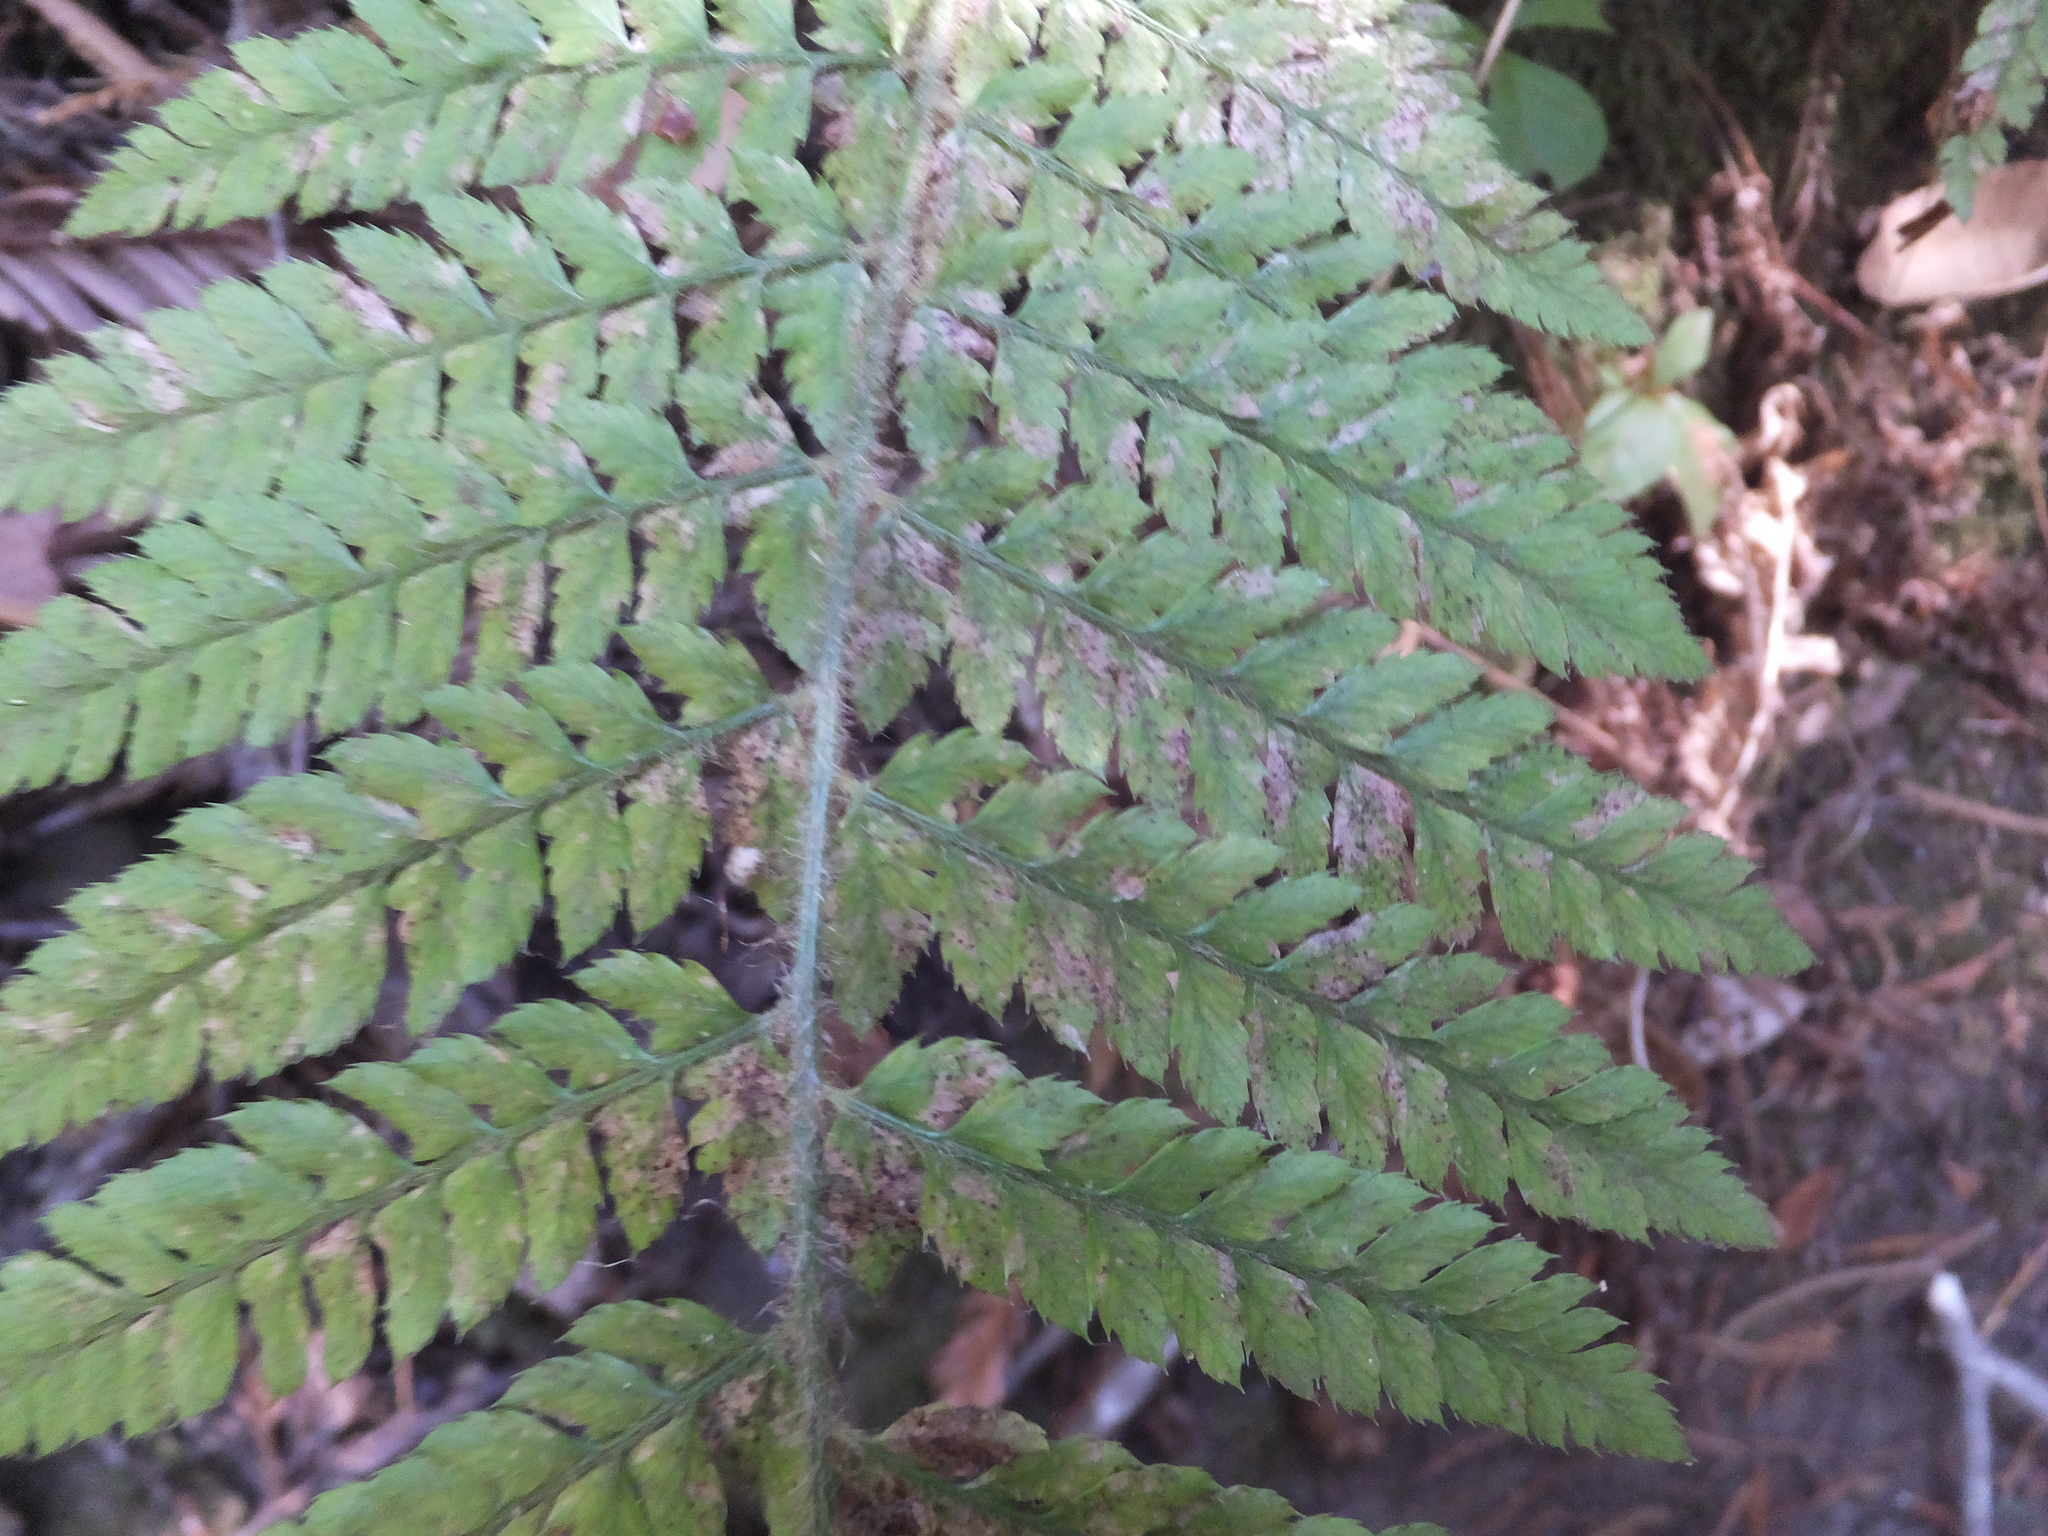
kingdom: Plantae
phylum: Tracheophyta
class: Polypodiopsida
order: Polypodiales
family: Dryopteridaceae
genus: Polystichum
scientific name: Polystichum dudleyi
